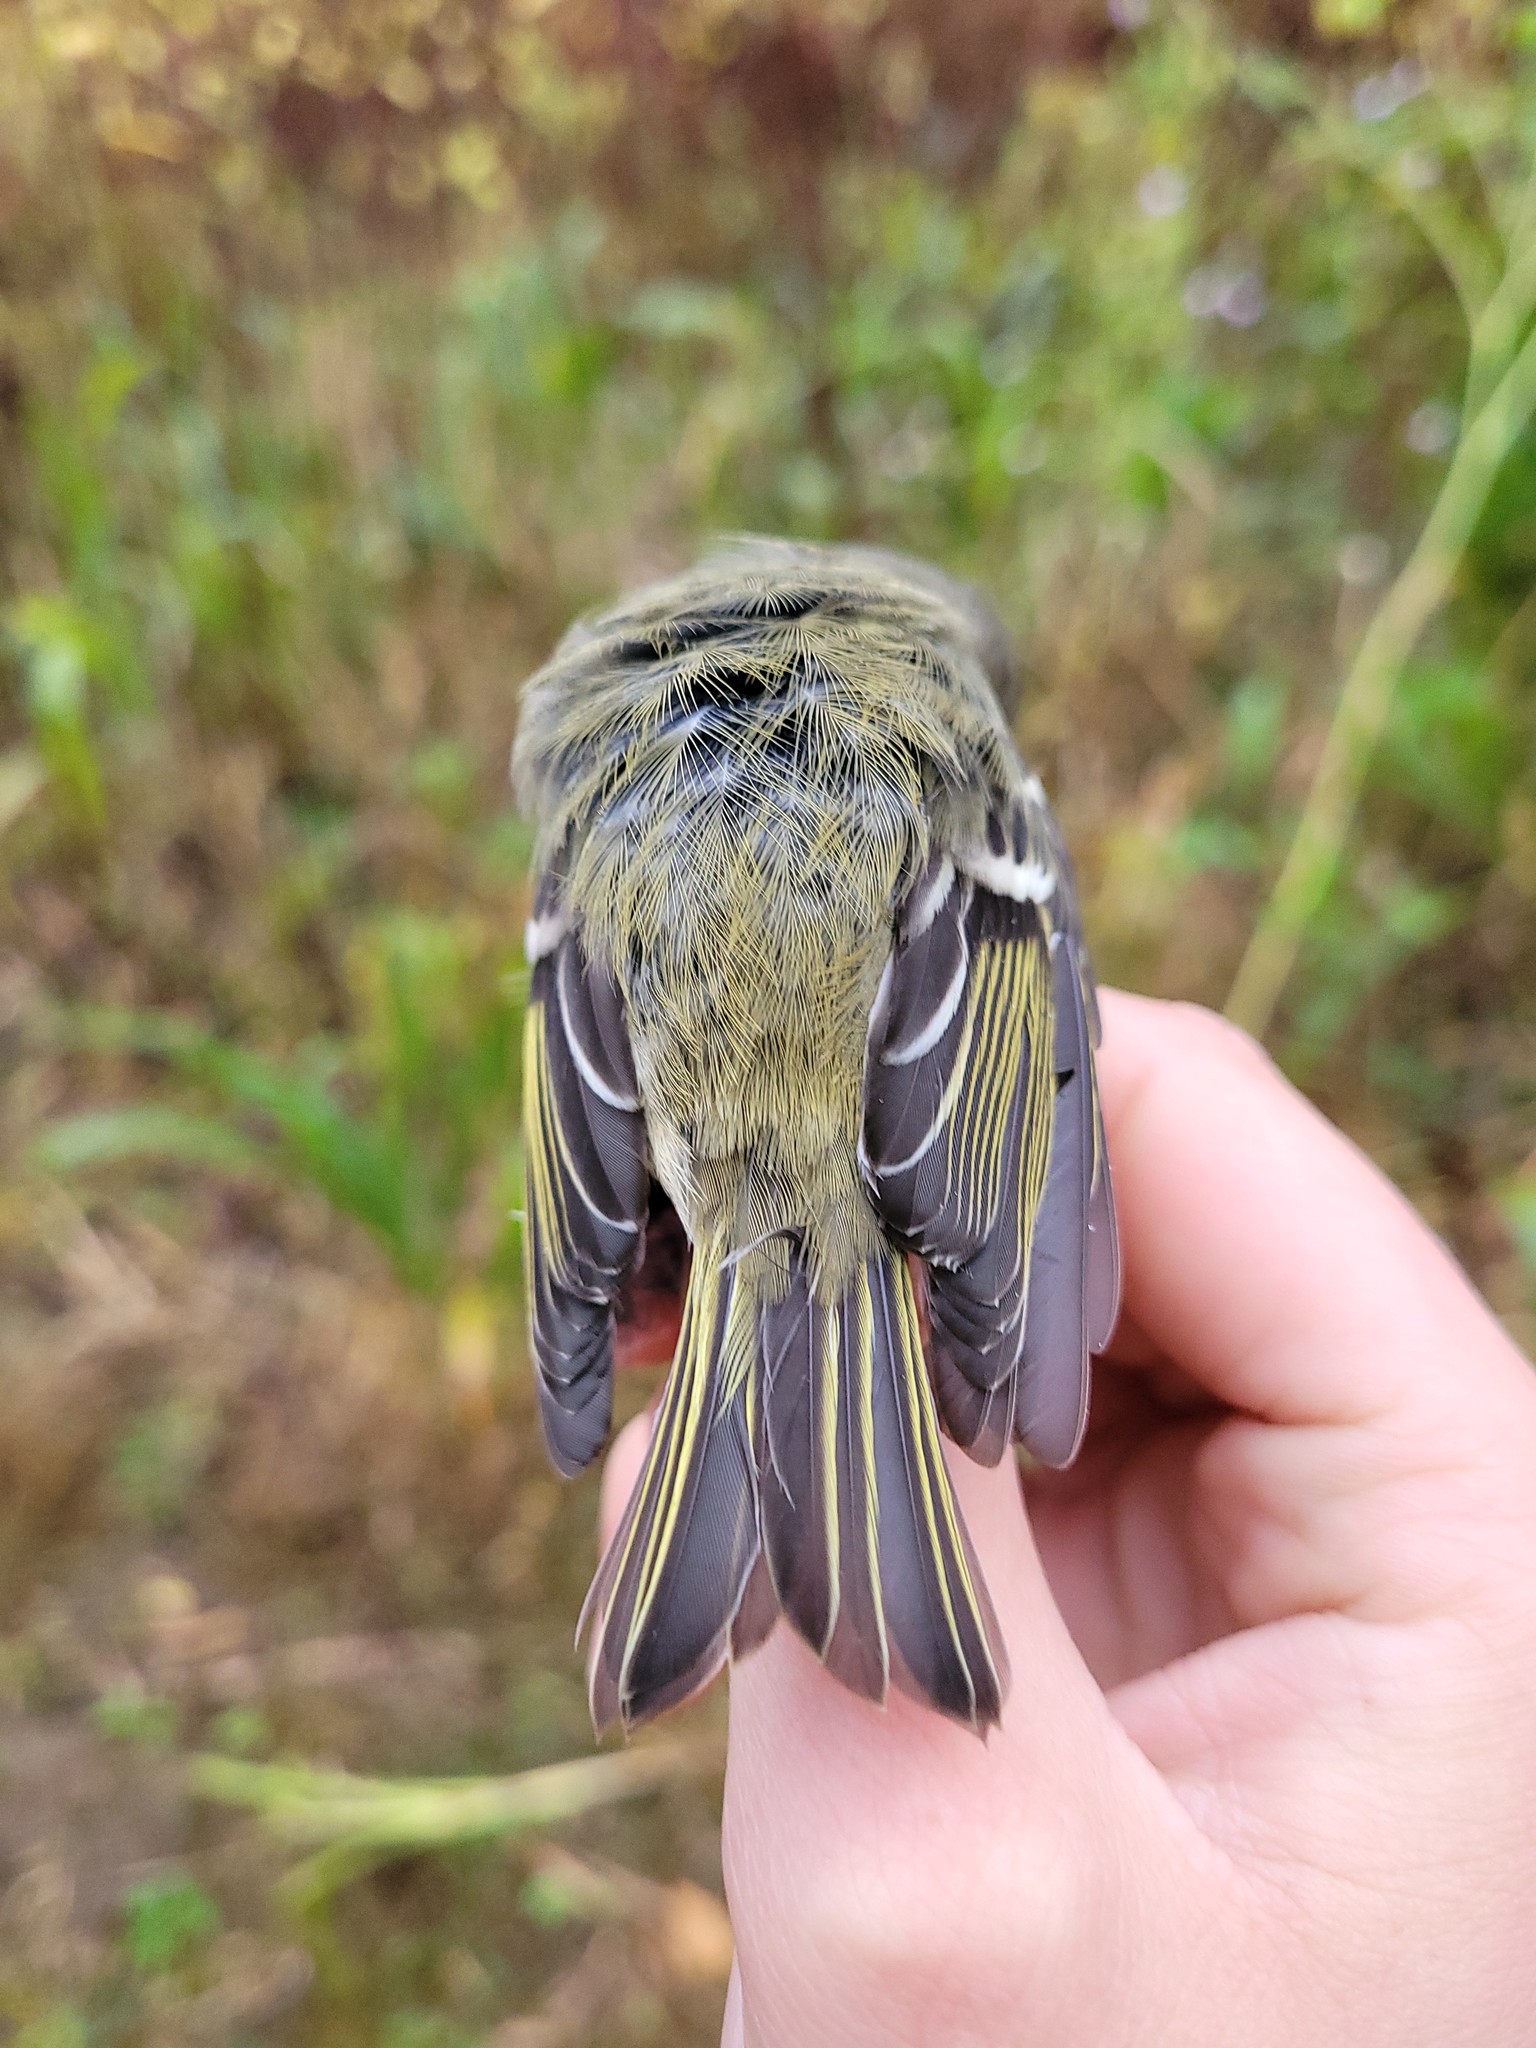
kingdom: Animalia
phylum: Chordata
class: Aves
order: Passeriformes
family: Regulidae
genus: Regulus
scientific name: Regulus calendula
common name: Ruby-crowned kinglet
